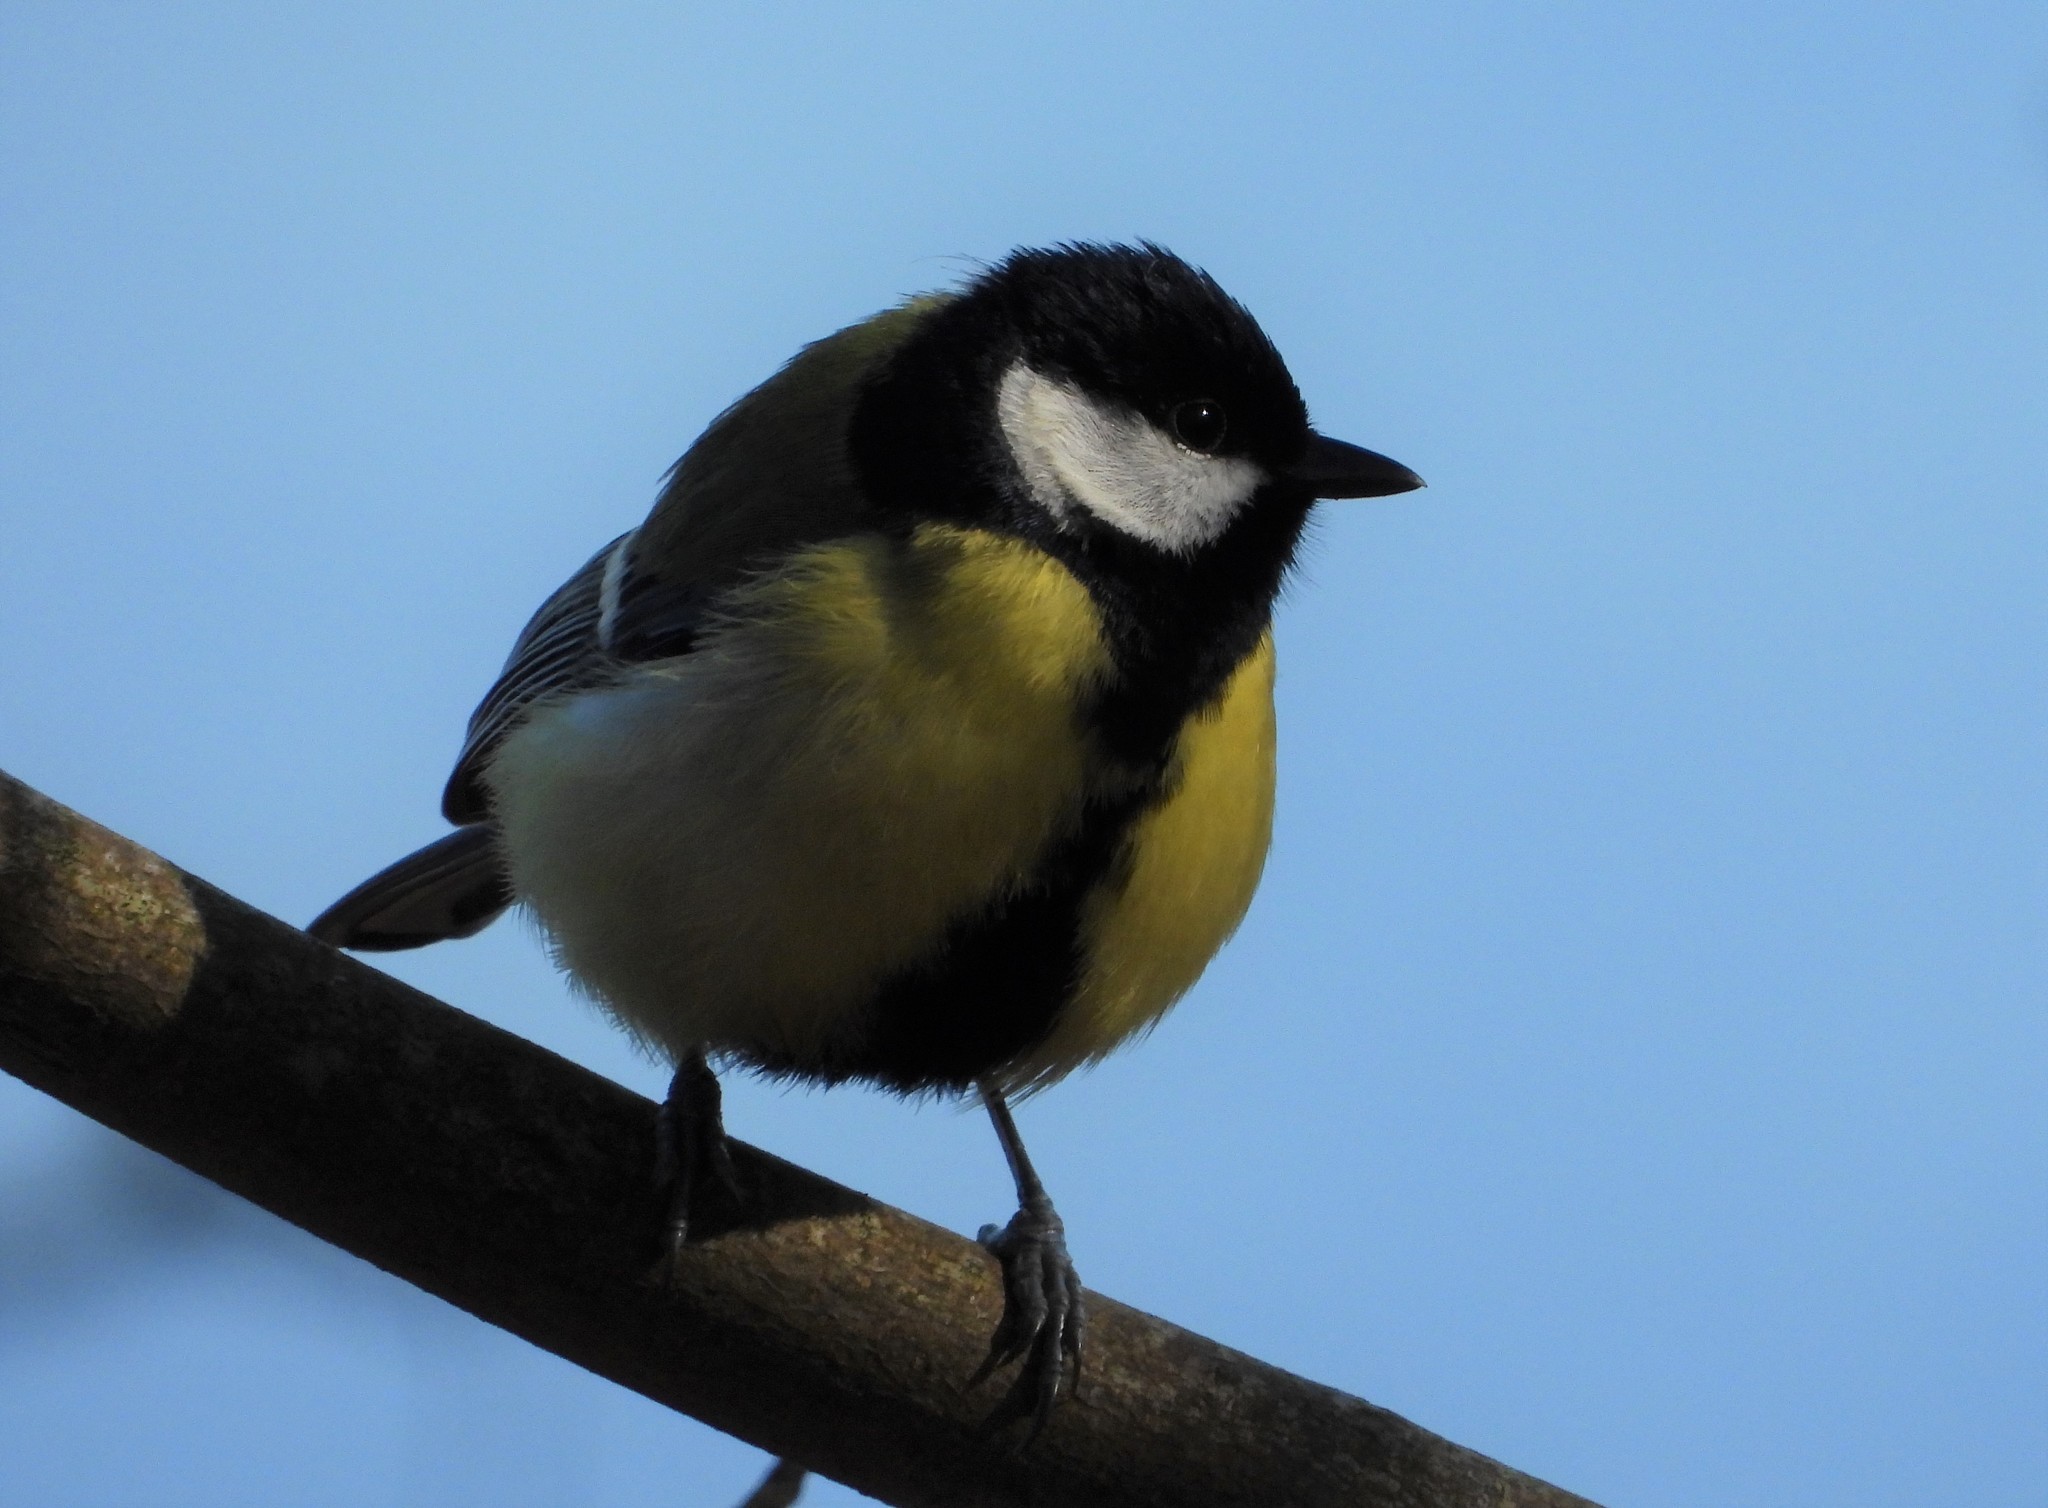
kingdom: Animalia
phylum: Chordata
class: Aves
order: Passeriformes
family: Paridae
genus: Parus
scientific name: Parus major
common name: Great tit
